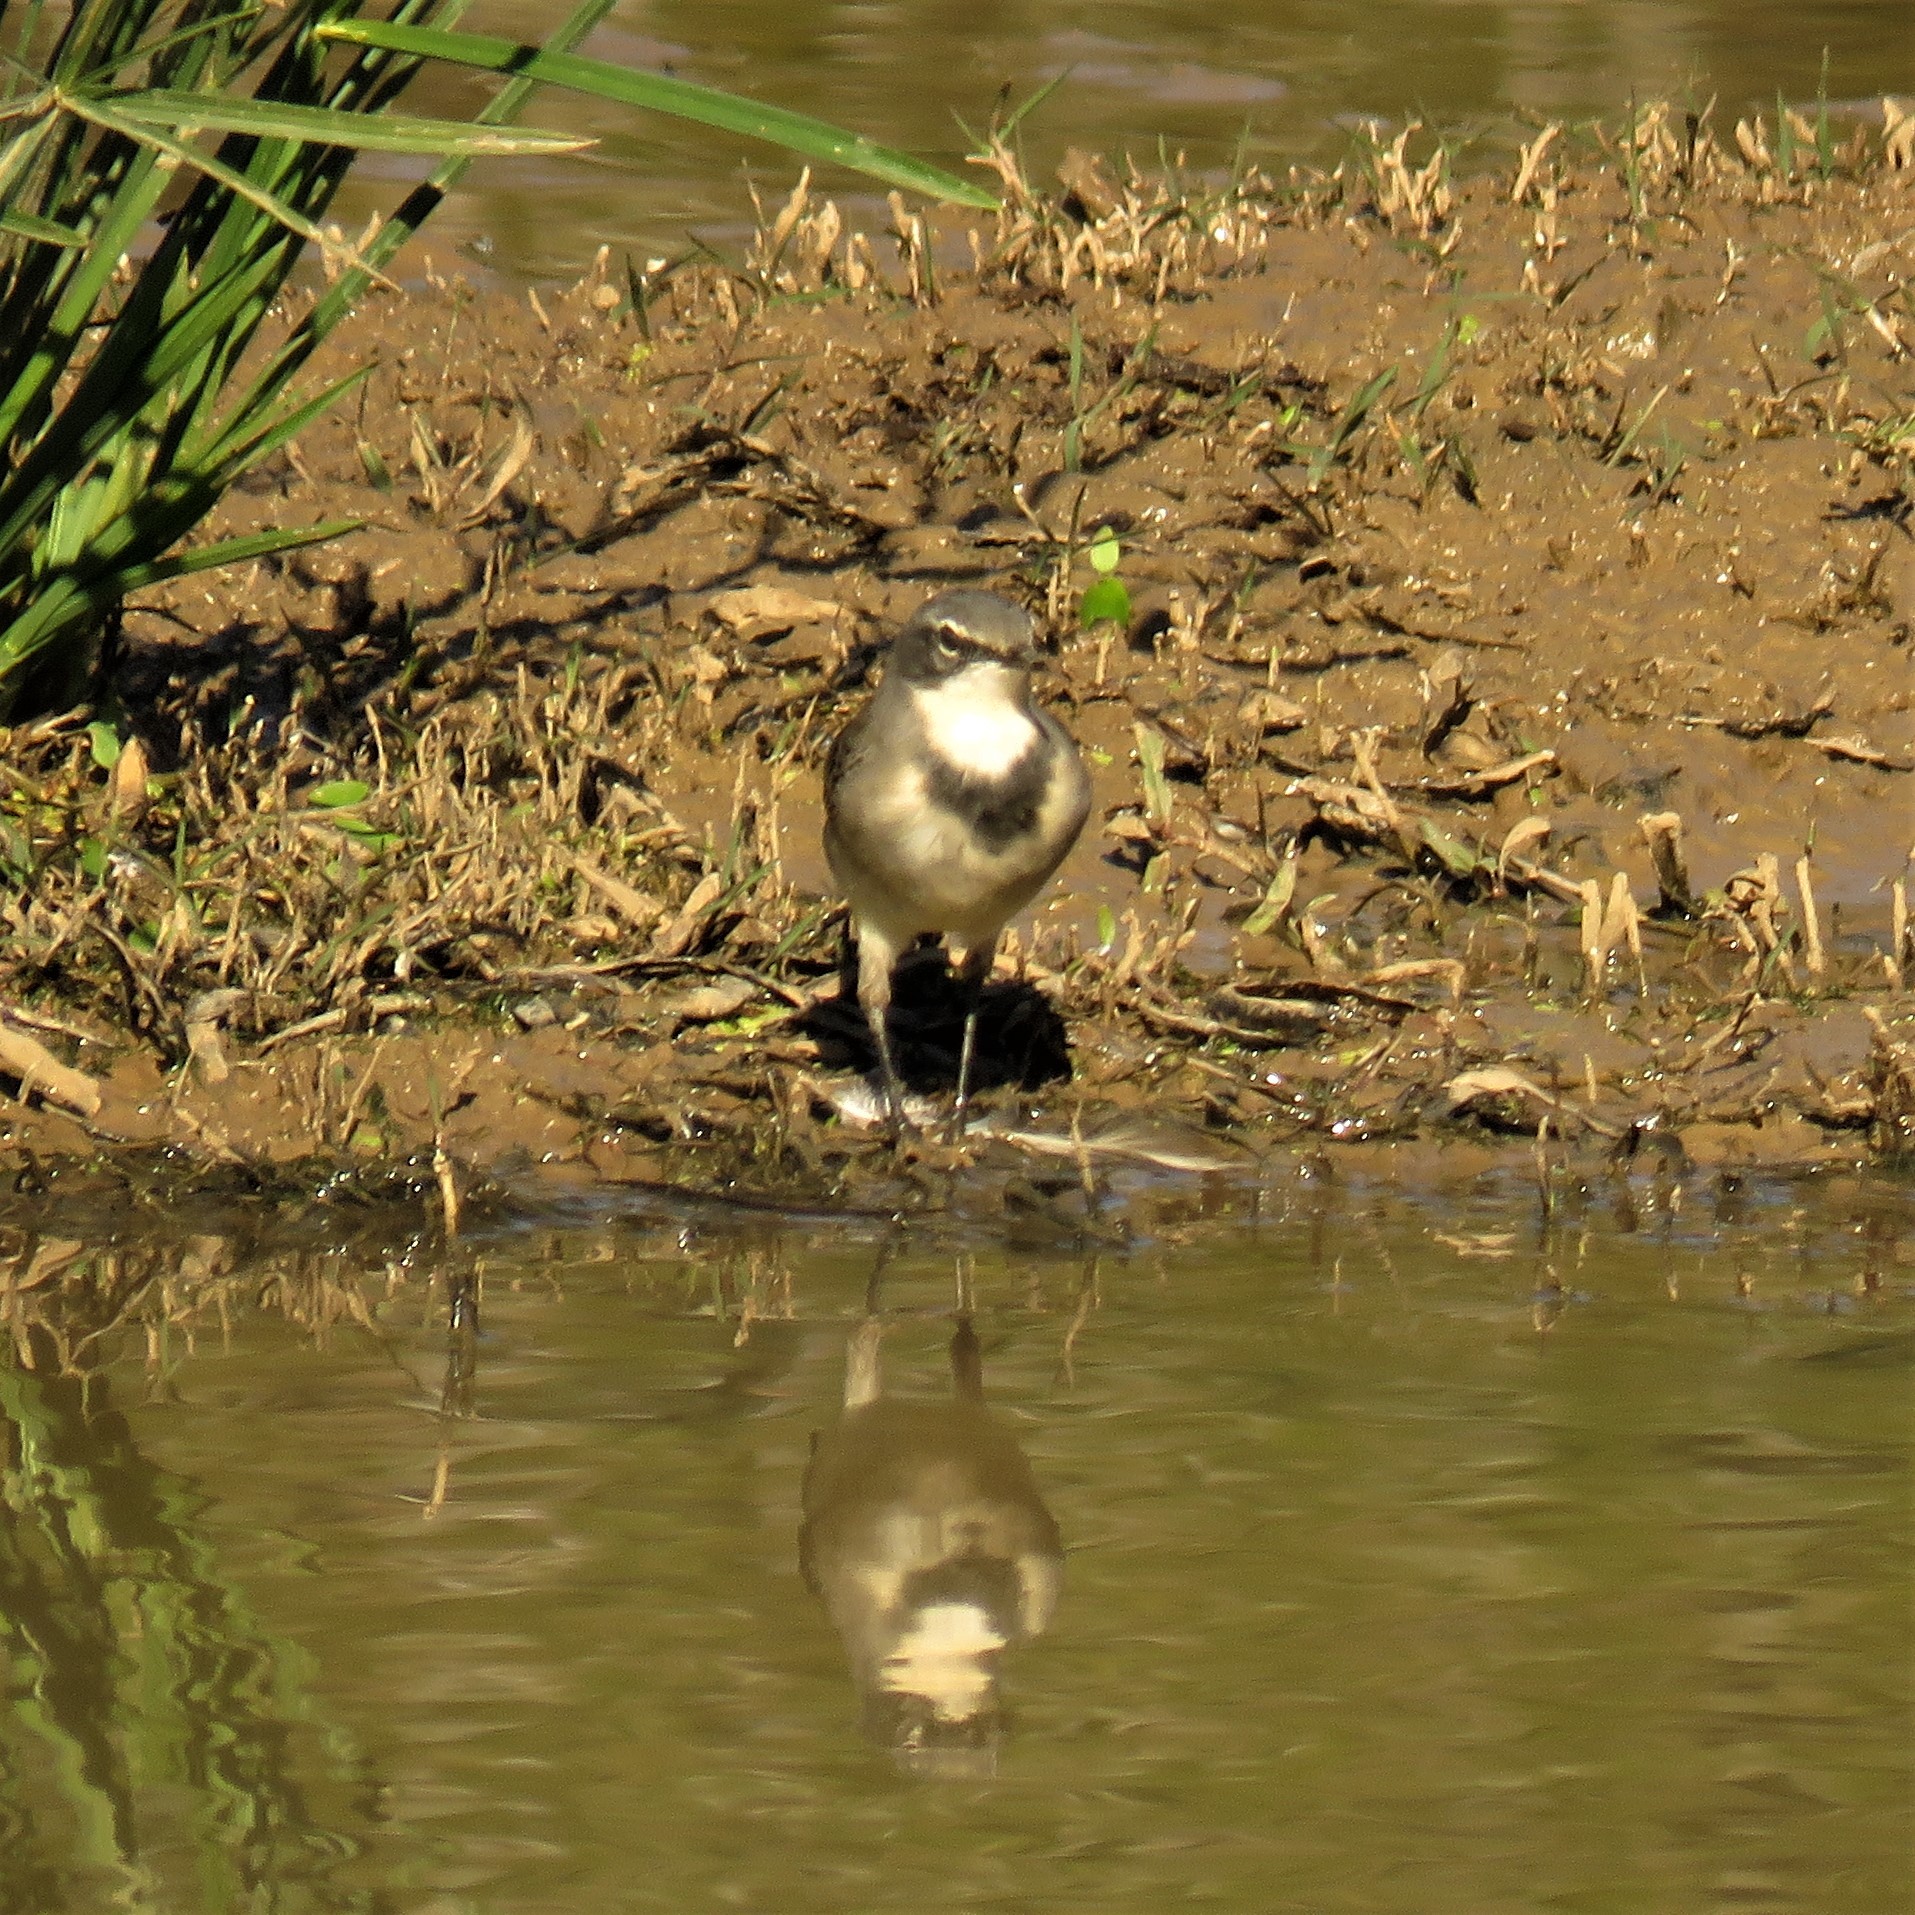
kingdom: Animalia
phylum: Chordata
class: Aves
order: Passeriformes
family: Motacillidae
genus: Motacilla
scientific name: Motacilla capensis
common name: Cape wagtail
